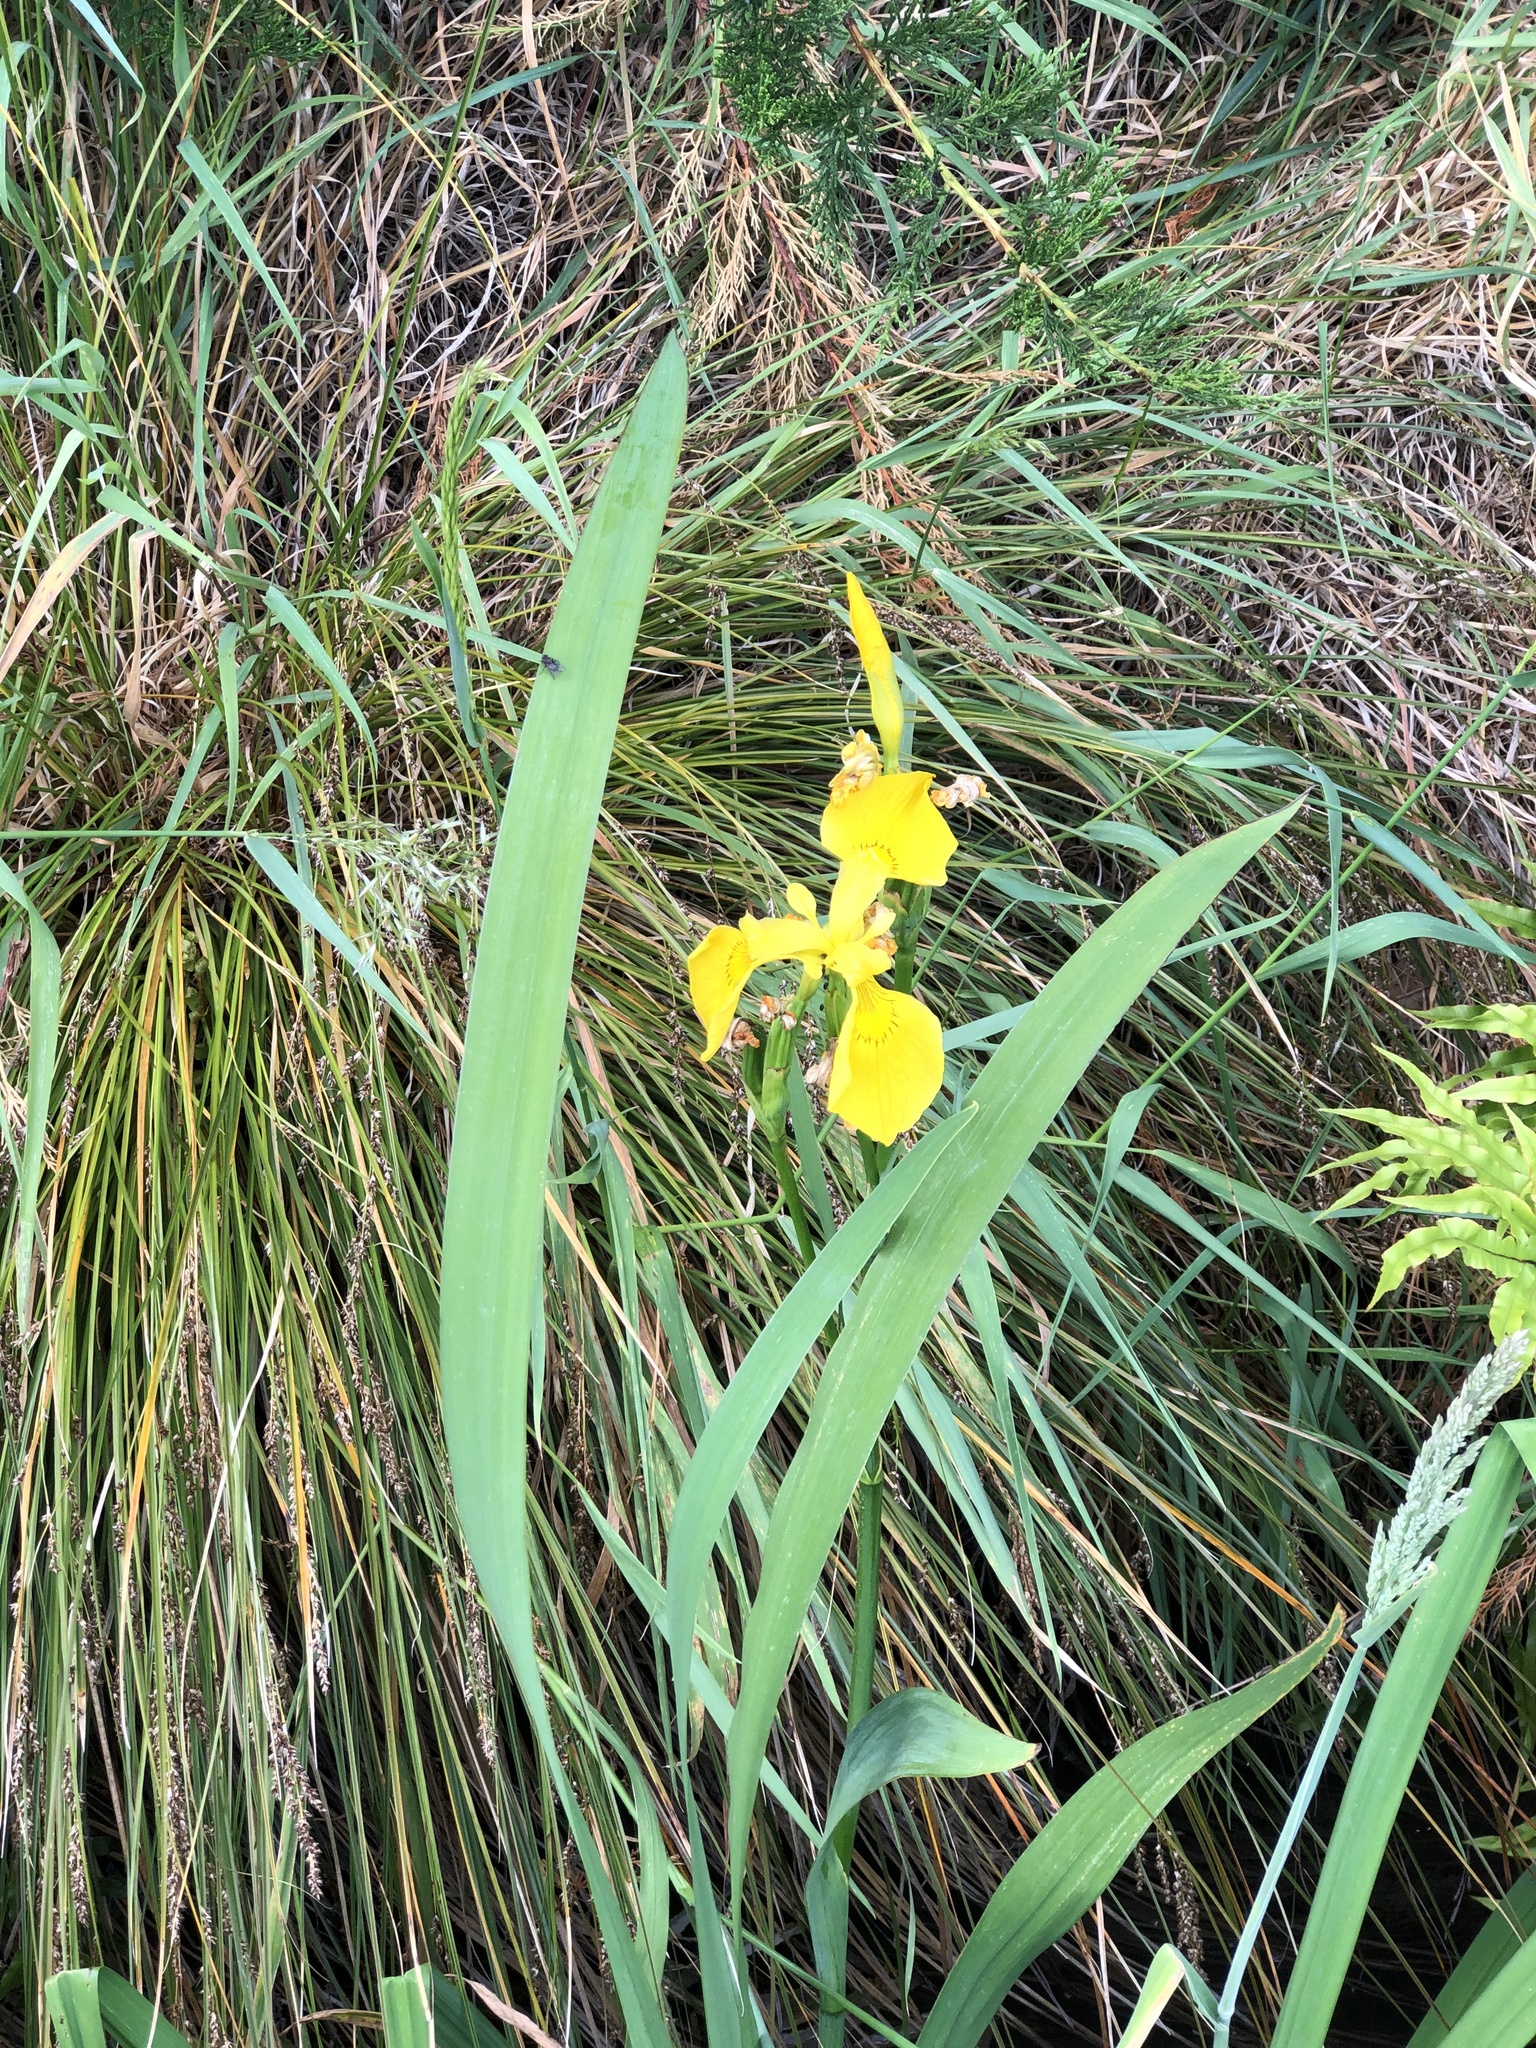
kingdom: Plantae
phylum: Tracheophyta
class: Liliopsida
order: Asparagales
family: Iridaceae
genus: Iris
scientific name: Iris pseudacorus
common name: Yellow flag
